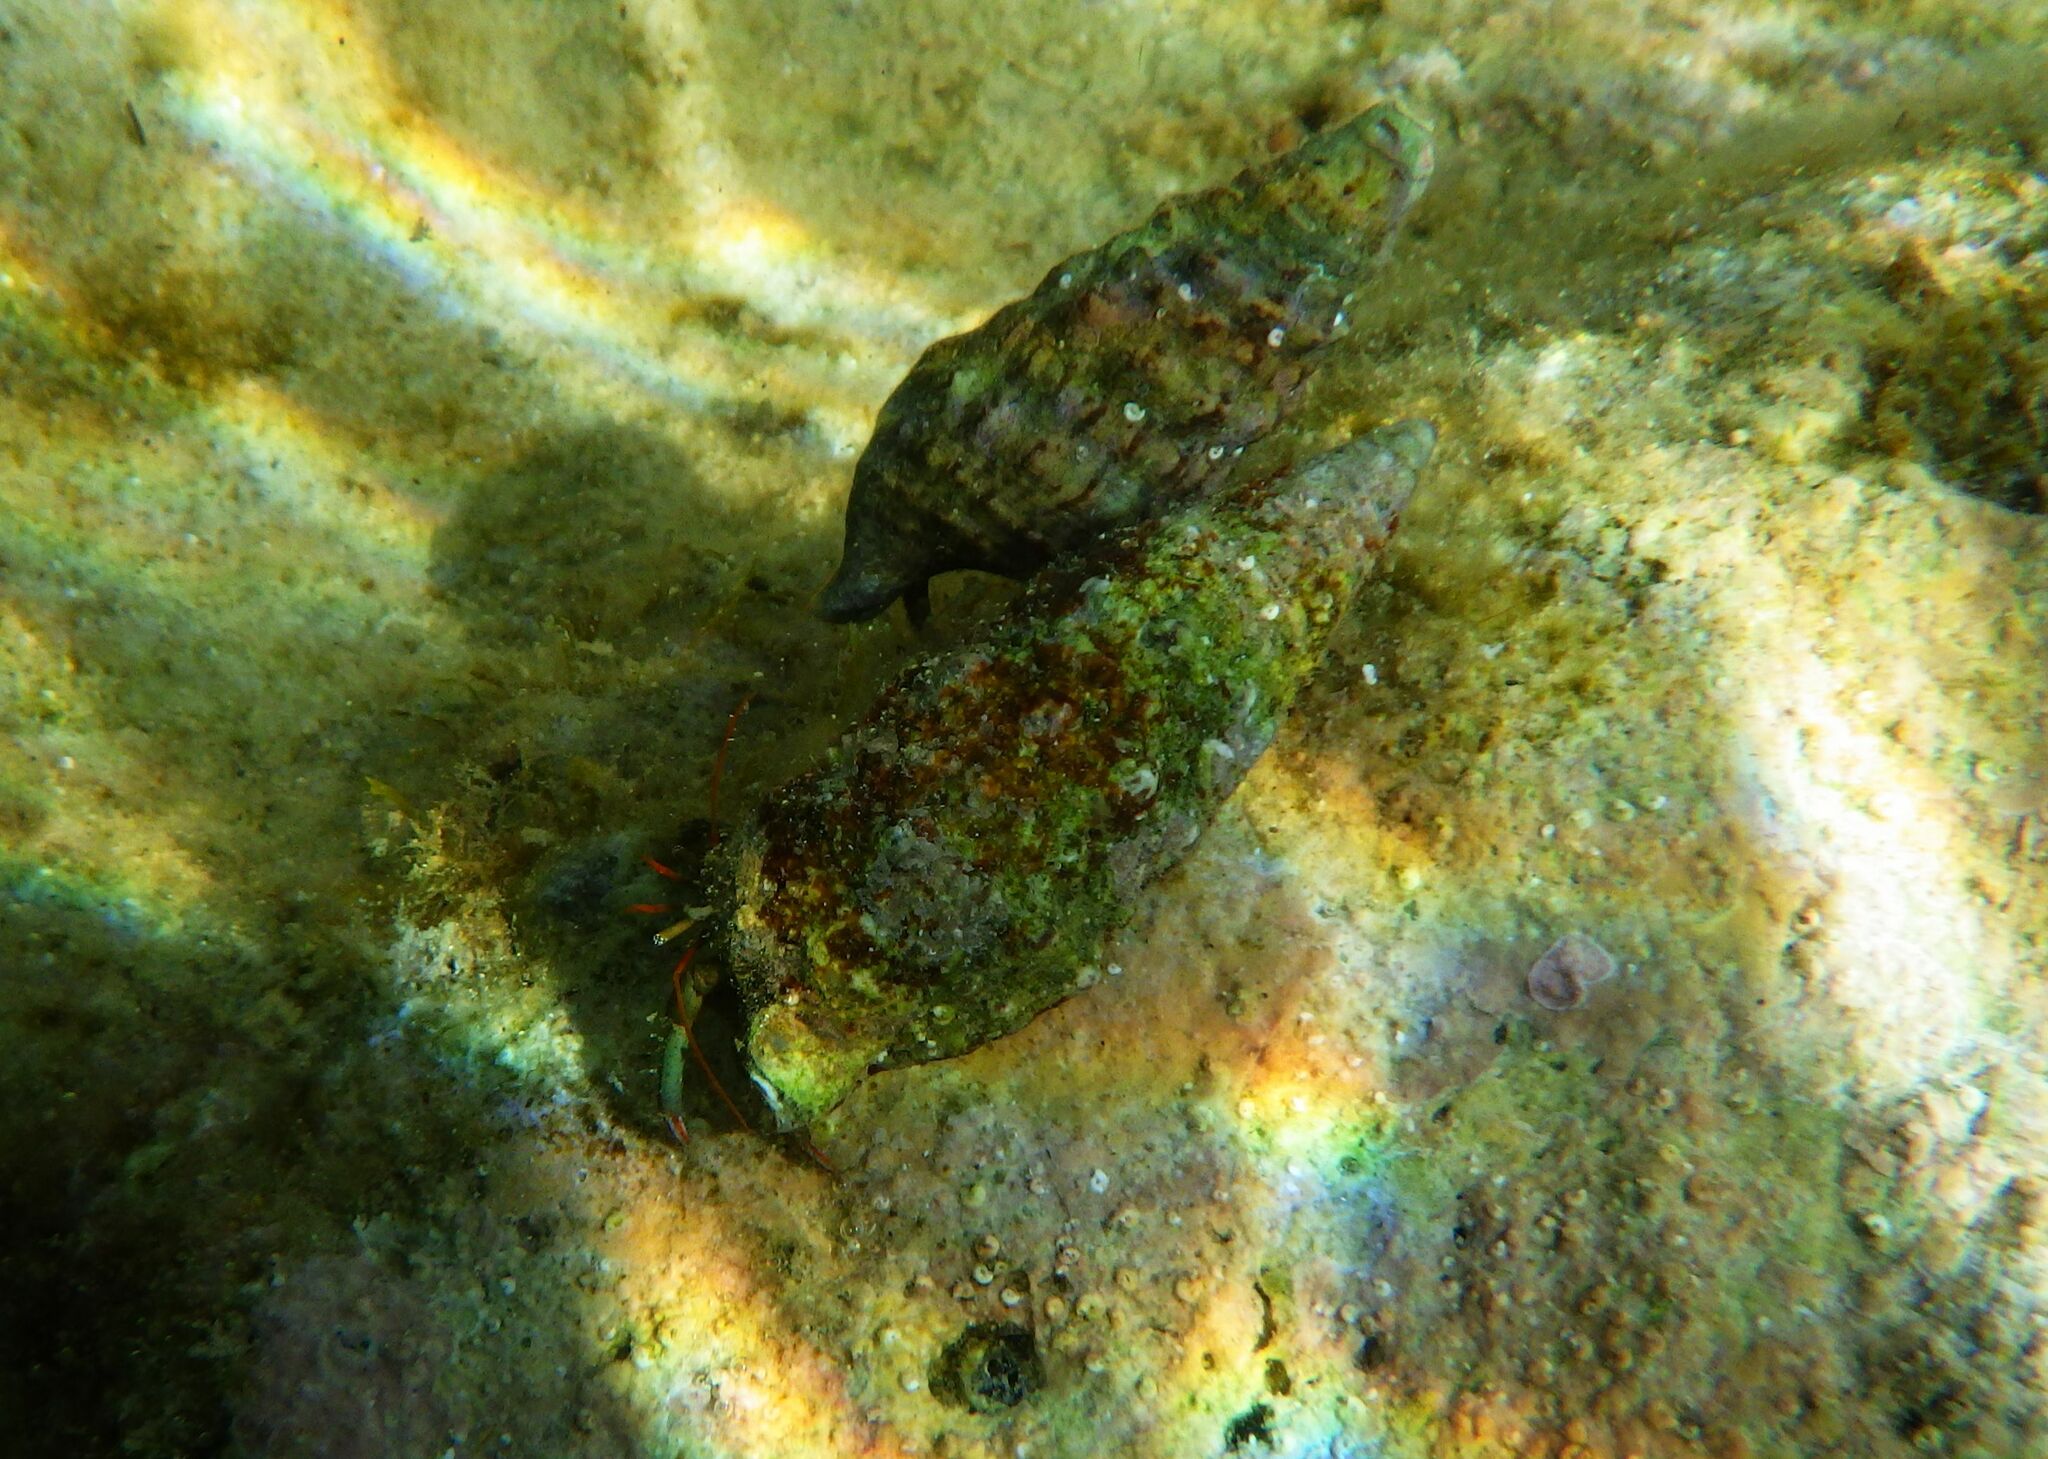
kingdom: Animalia
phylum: Arthropoda
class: Malacostraca
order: Decapoda
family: Diogenidae
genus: Clibanarius
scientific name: Clibanarius erythropus
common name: Hermit crab
